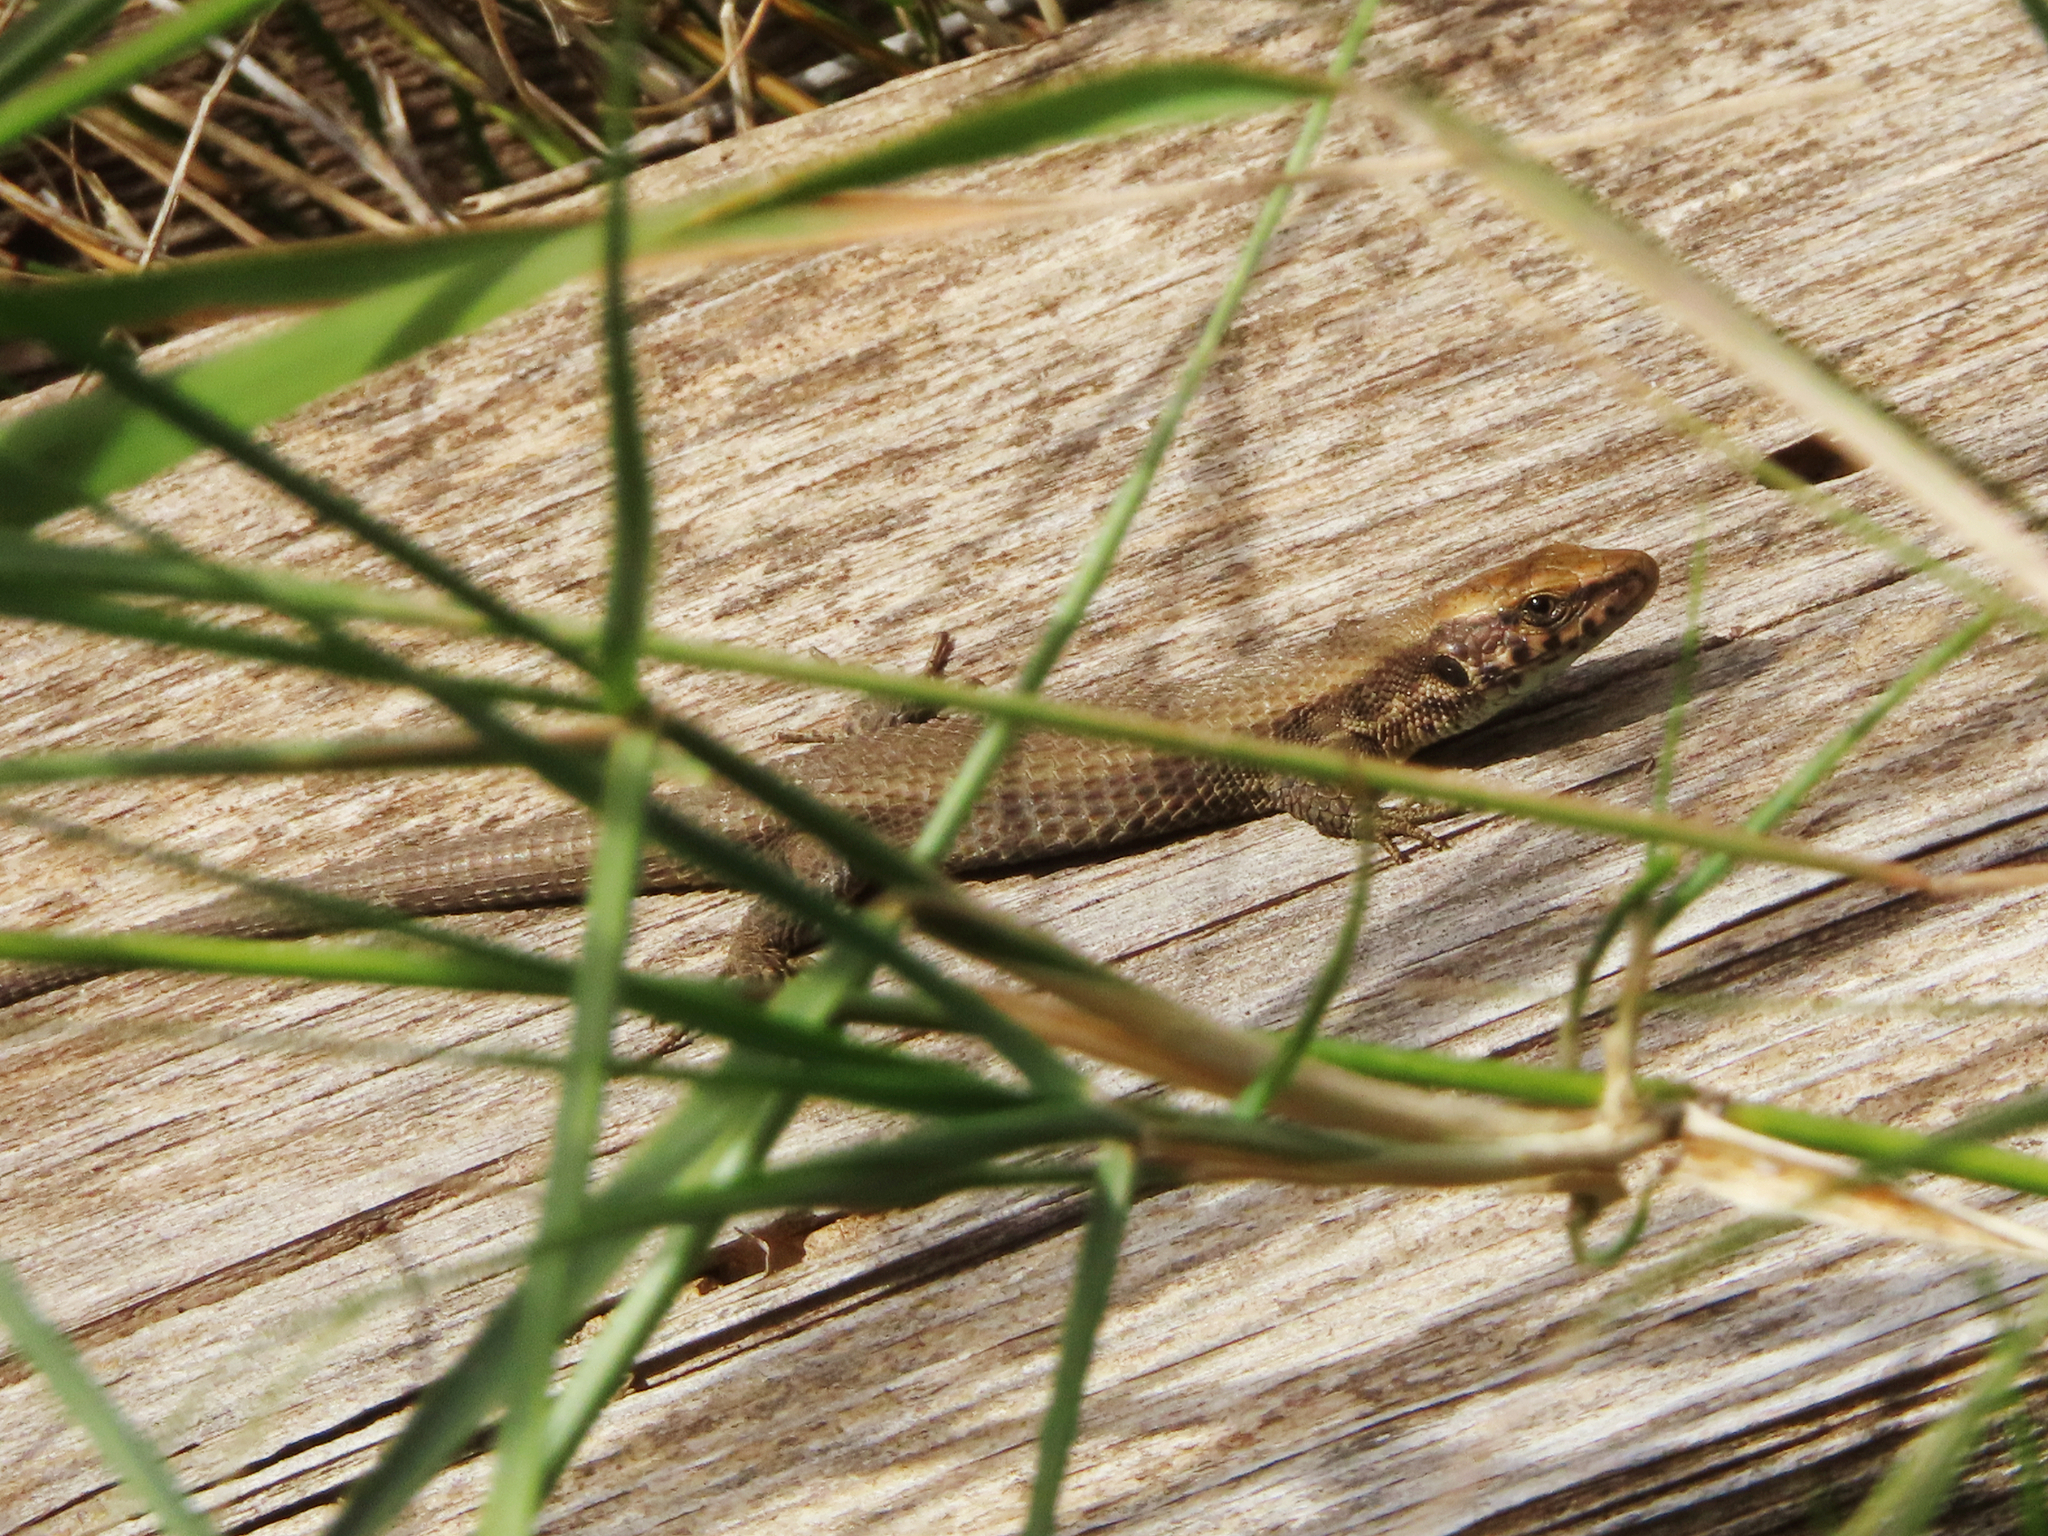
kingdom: Animalia
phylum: Chordata
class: Squamata
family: Lacertidae
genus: Algyroides
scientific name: Algyroides moreoticus
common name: Greek algyroides
